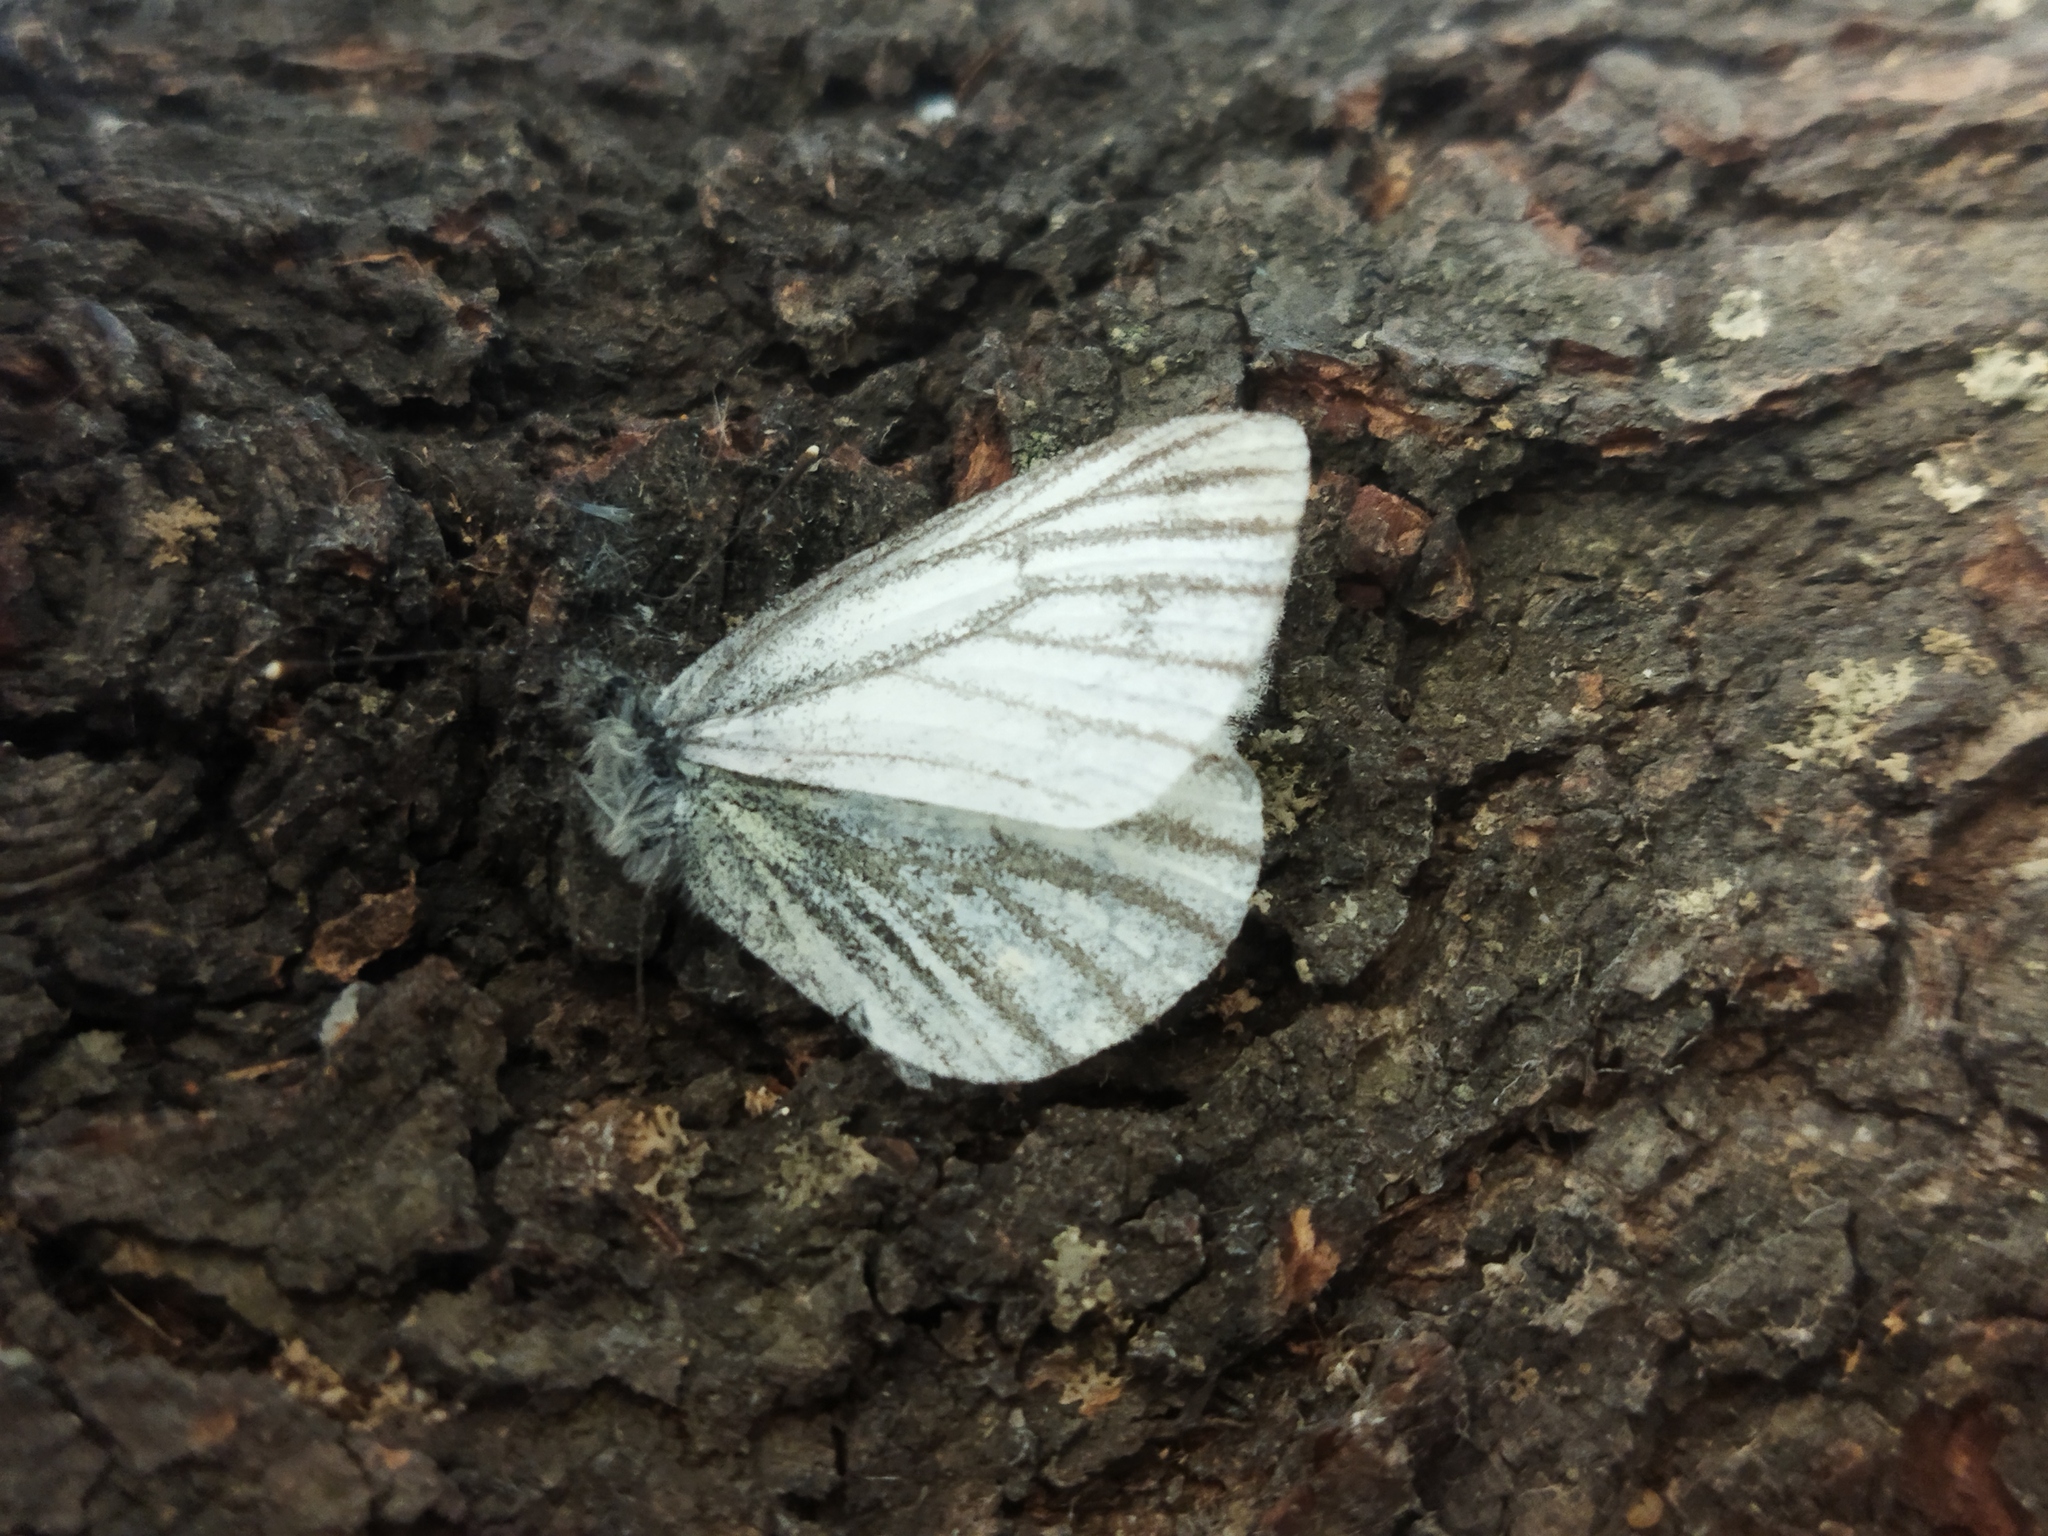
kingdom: Animalia
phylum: Arthropoda
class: Insecta
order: Lepidoptera
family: Pieridae
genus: Pieris
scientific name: Pieris napi
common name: Green-veined white
